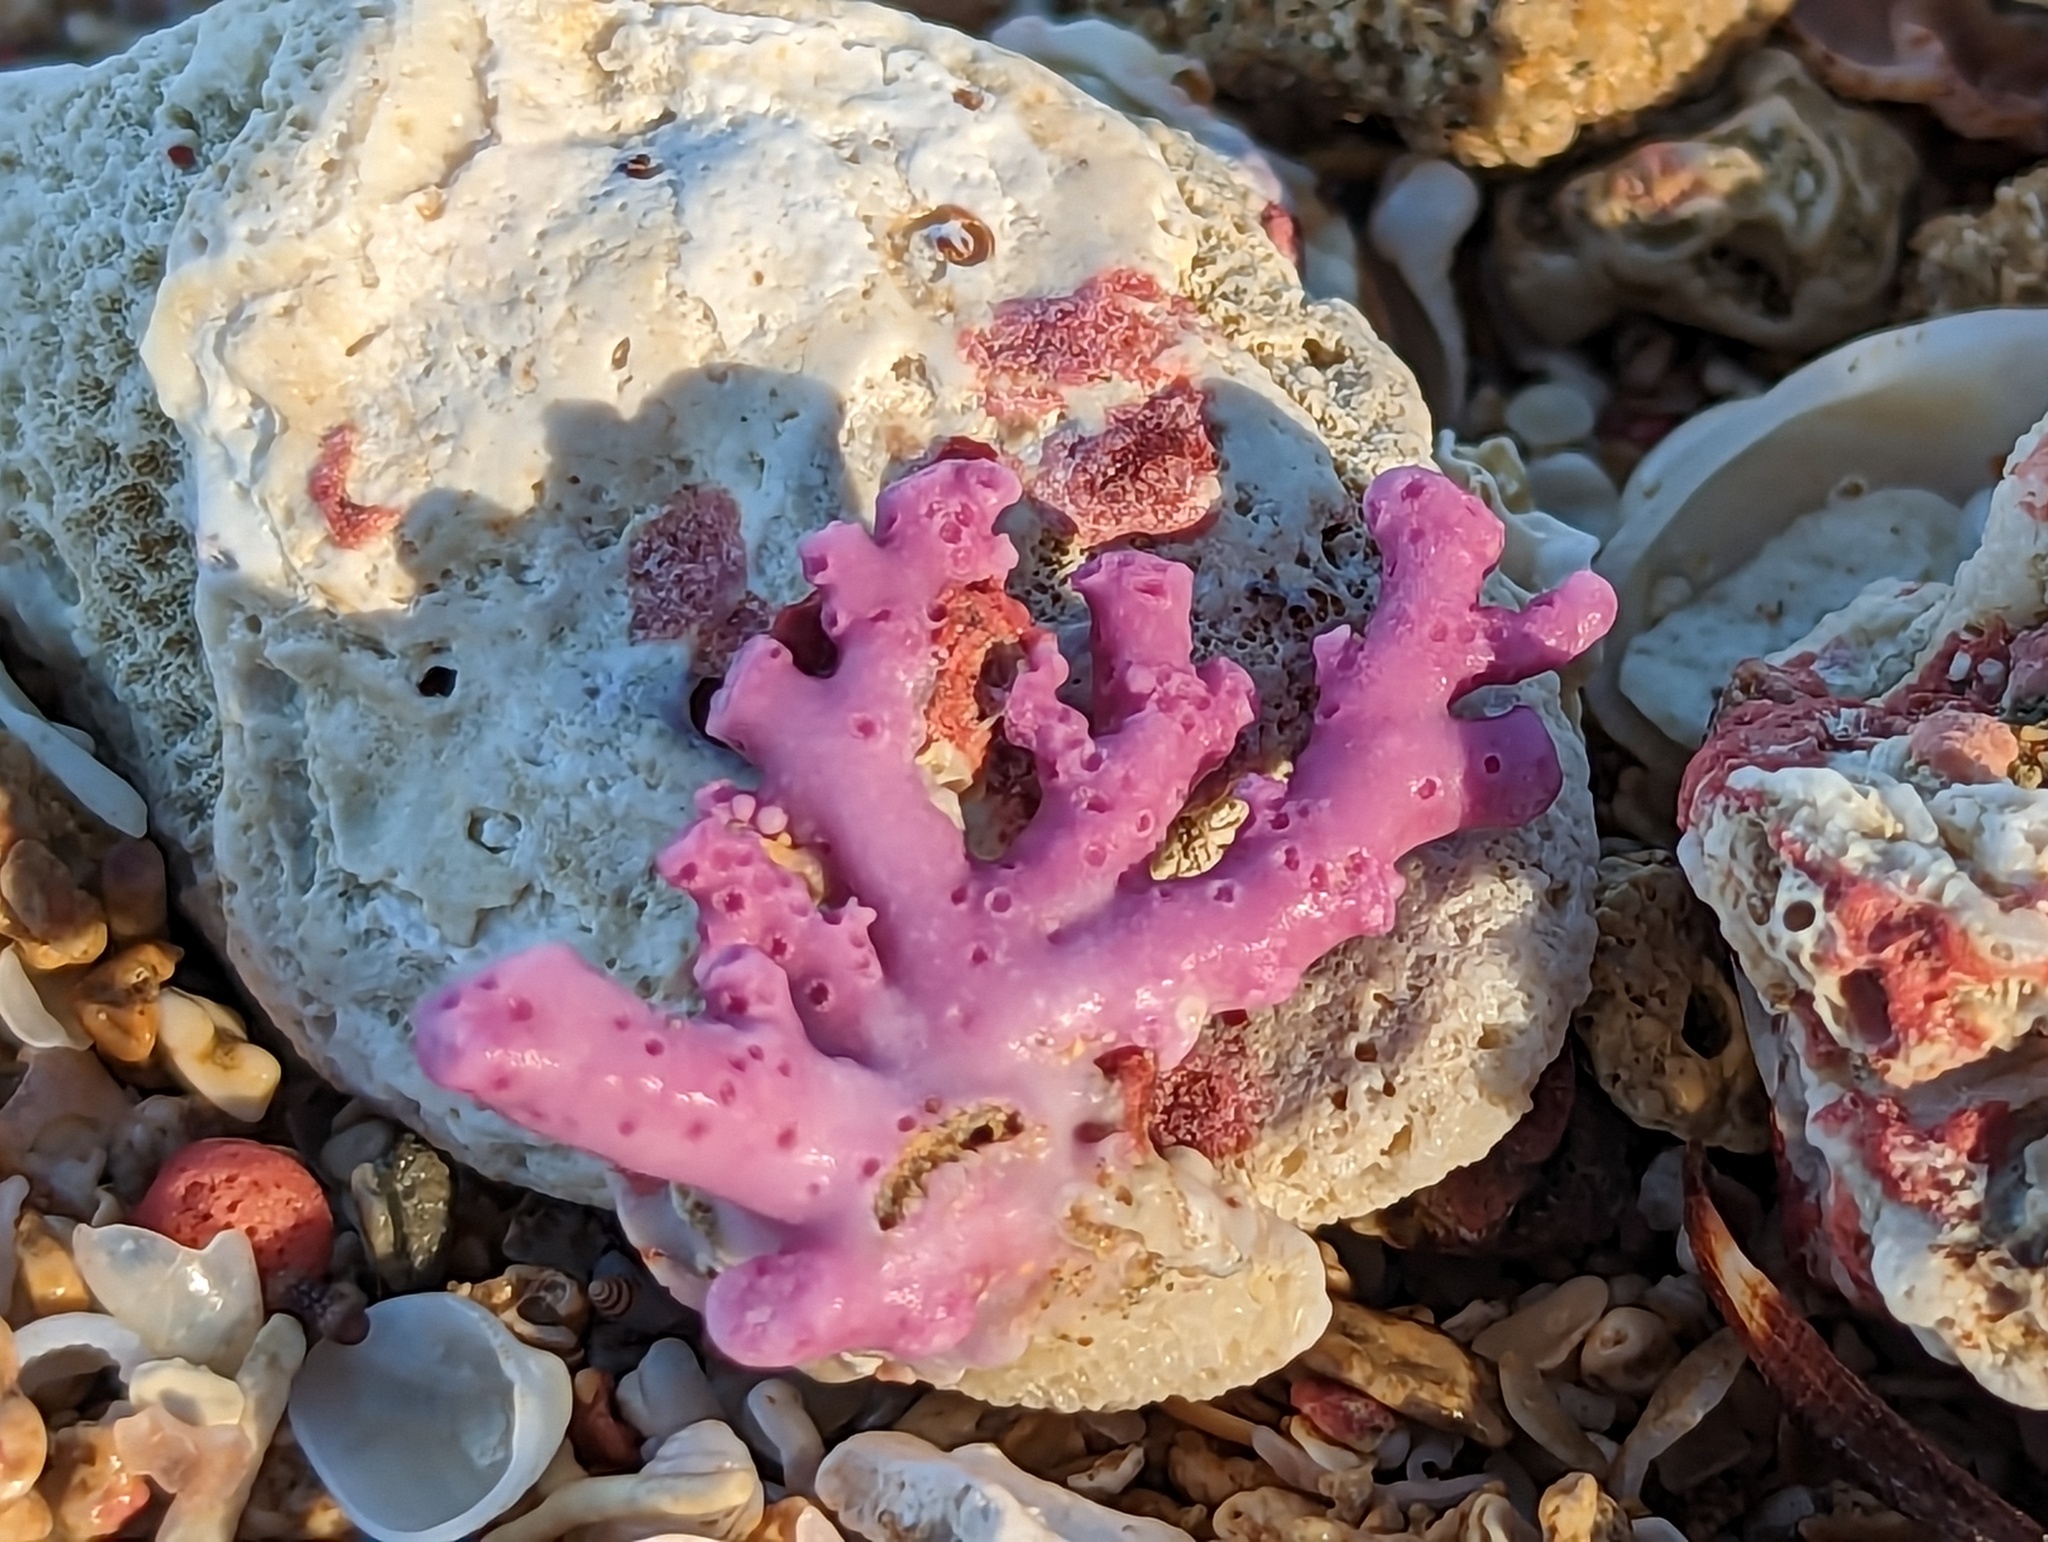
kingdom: Animalia
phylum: Cnidaria
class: Hydrozoa
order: Anthoathecata
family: Stylasteridae
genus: Stylaster
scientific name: Stylaster roseus
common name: Rose lace coral
